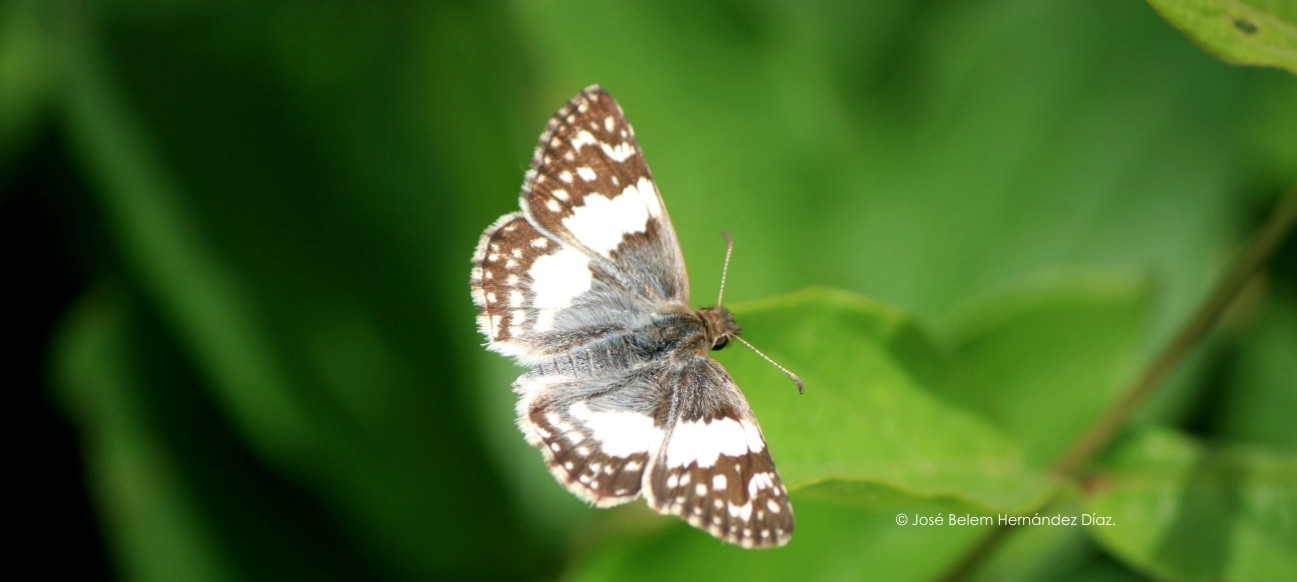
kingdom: Animalia
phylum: Arthropoda
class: Insecta
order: Lepidoptera
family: Hesperiidae
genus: Heliopyrgus
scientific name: Heliopyrgus domicella
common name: Erichson's white skipper
